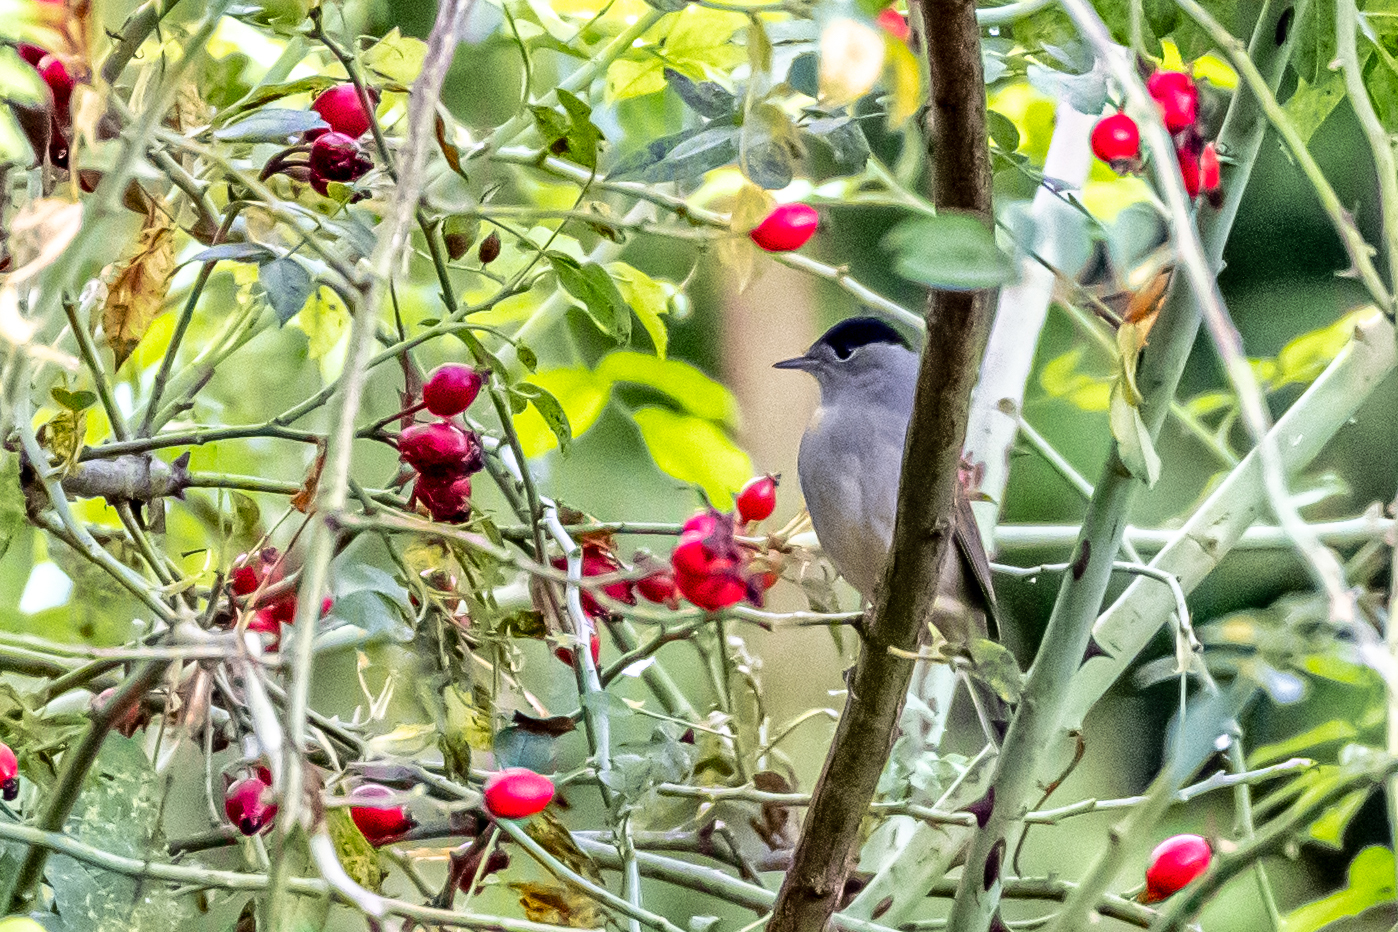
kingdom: Animalia
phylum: Chordata
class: Aves
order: Passeriformes
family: Sylviidae
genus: Sylvia
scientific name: Sylvia atricapilla
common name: Eurasian blackcap
